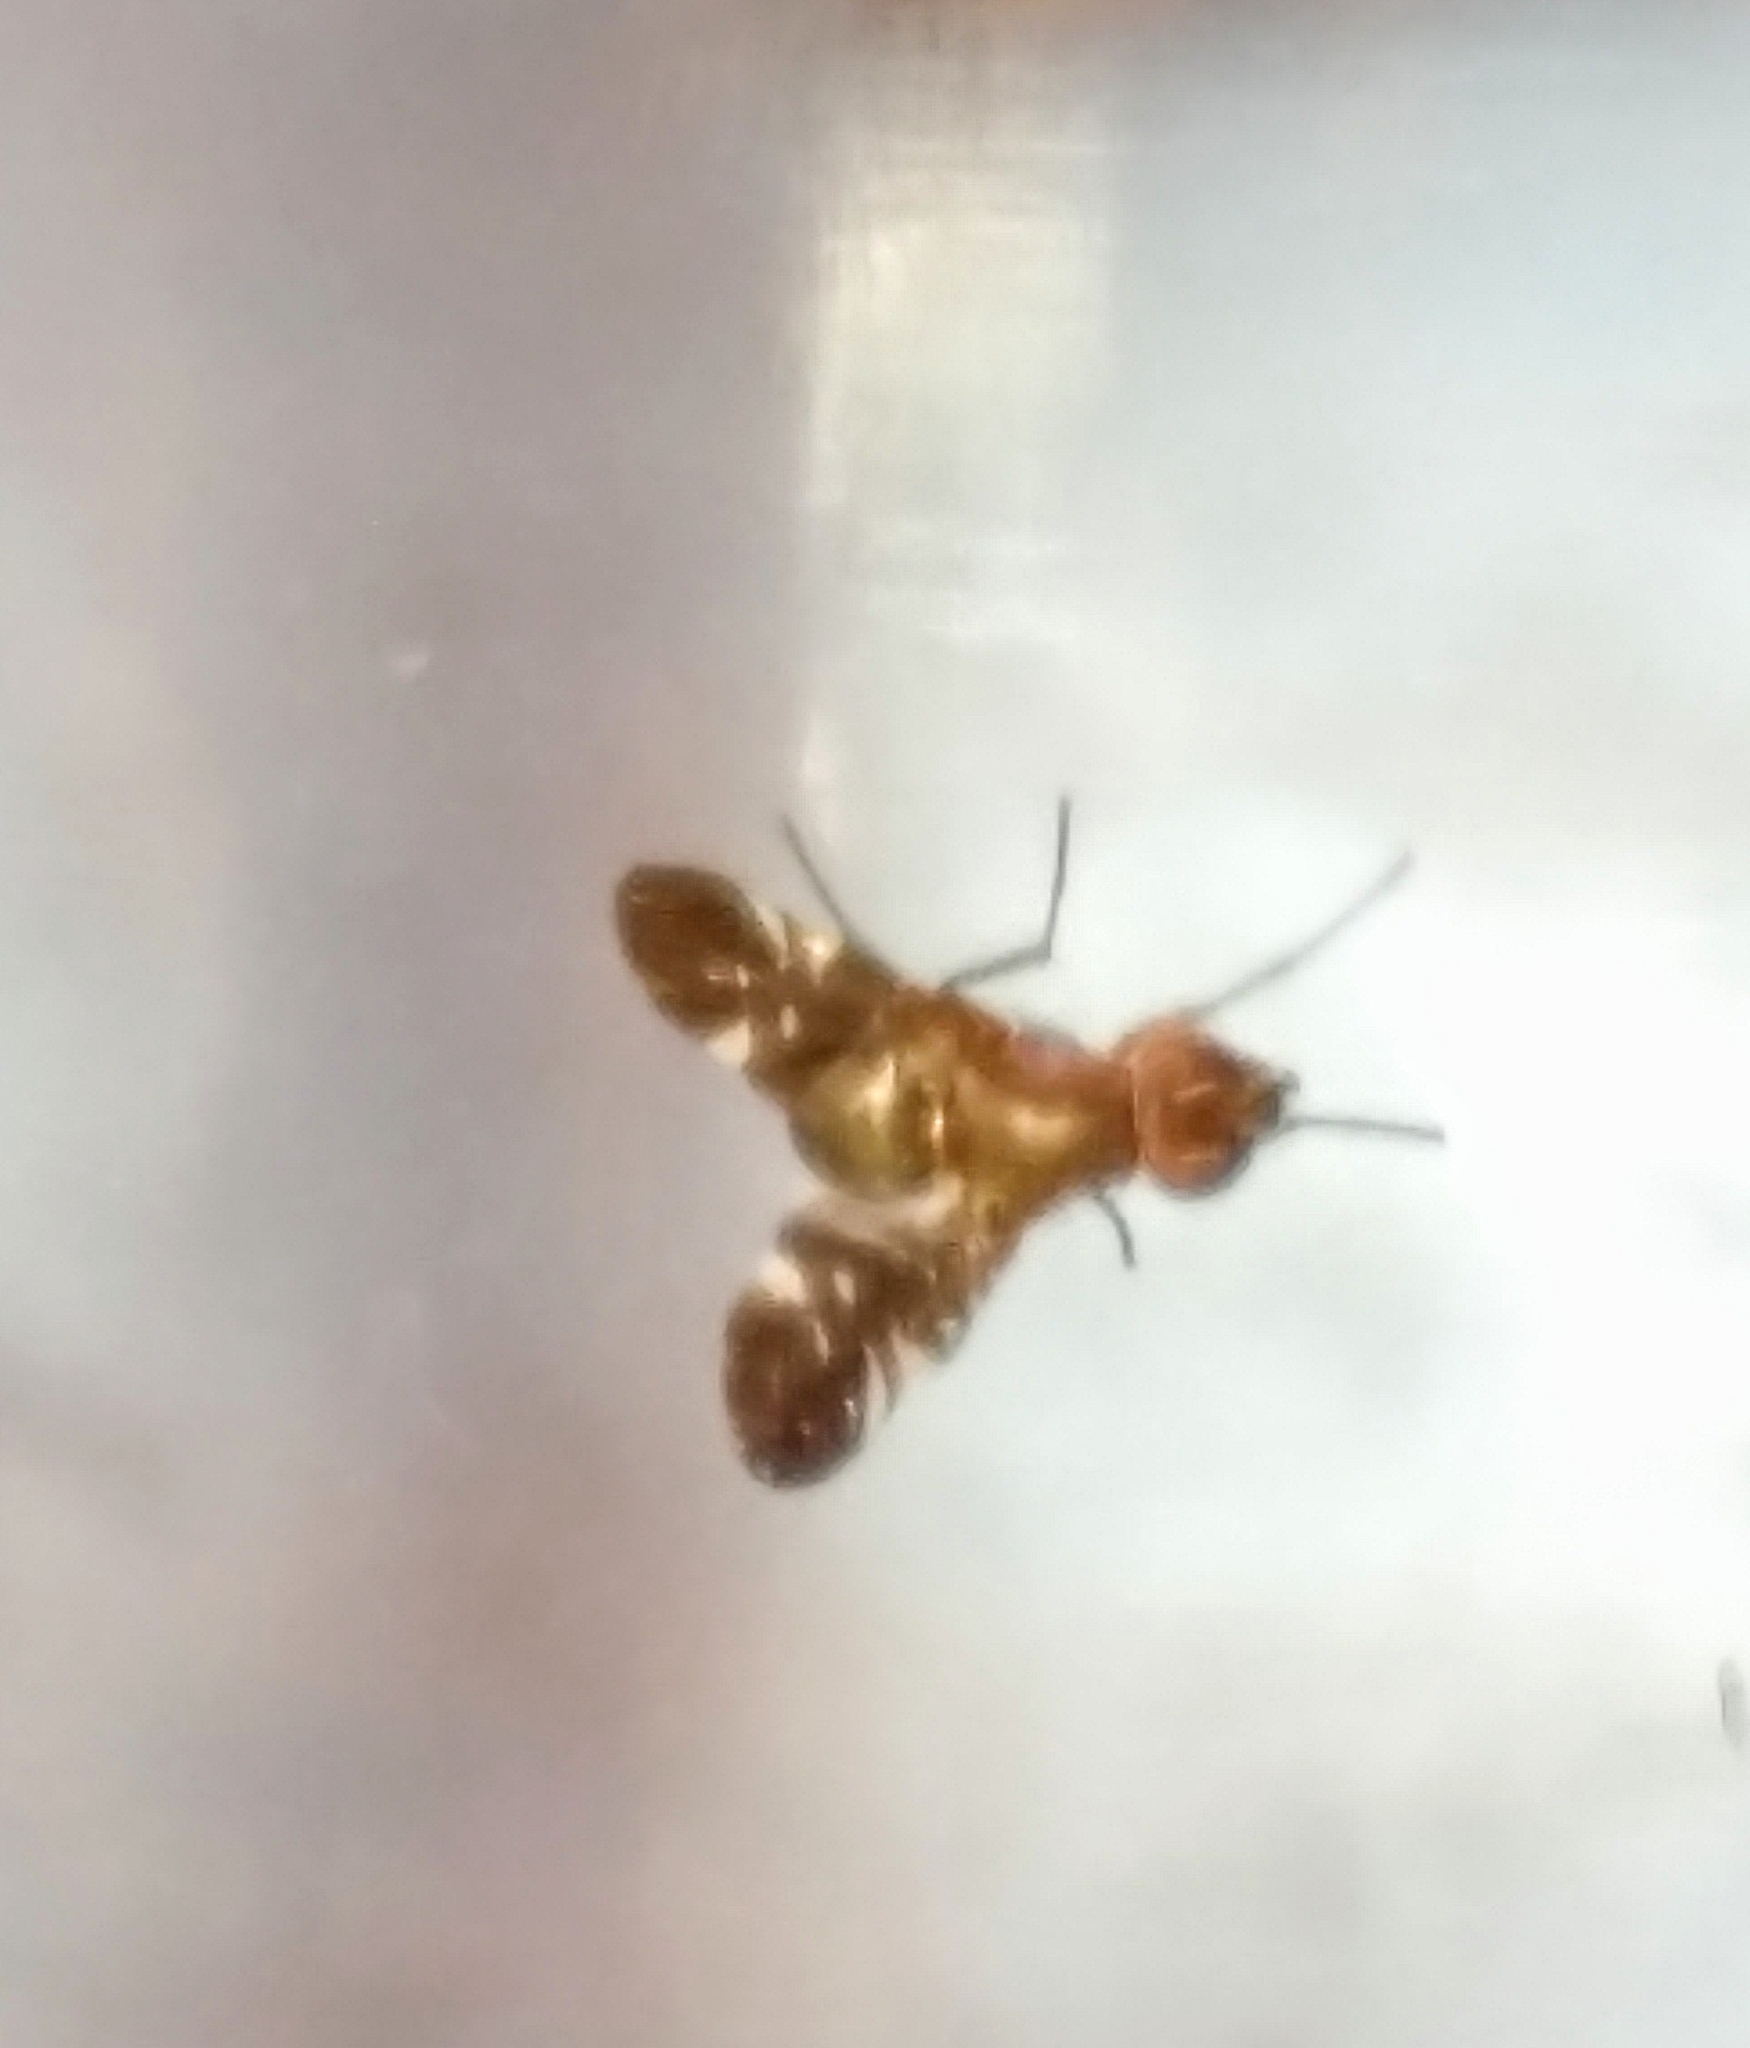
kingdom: Animalia
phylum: Arthropoda
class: Insecta
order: Diptera
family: Ulidiidae
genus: Delphinia
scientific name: Delphinia picta
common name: Common picture-winged fly
